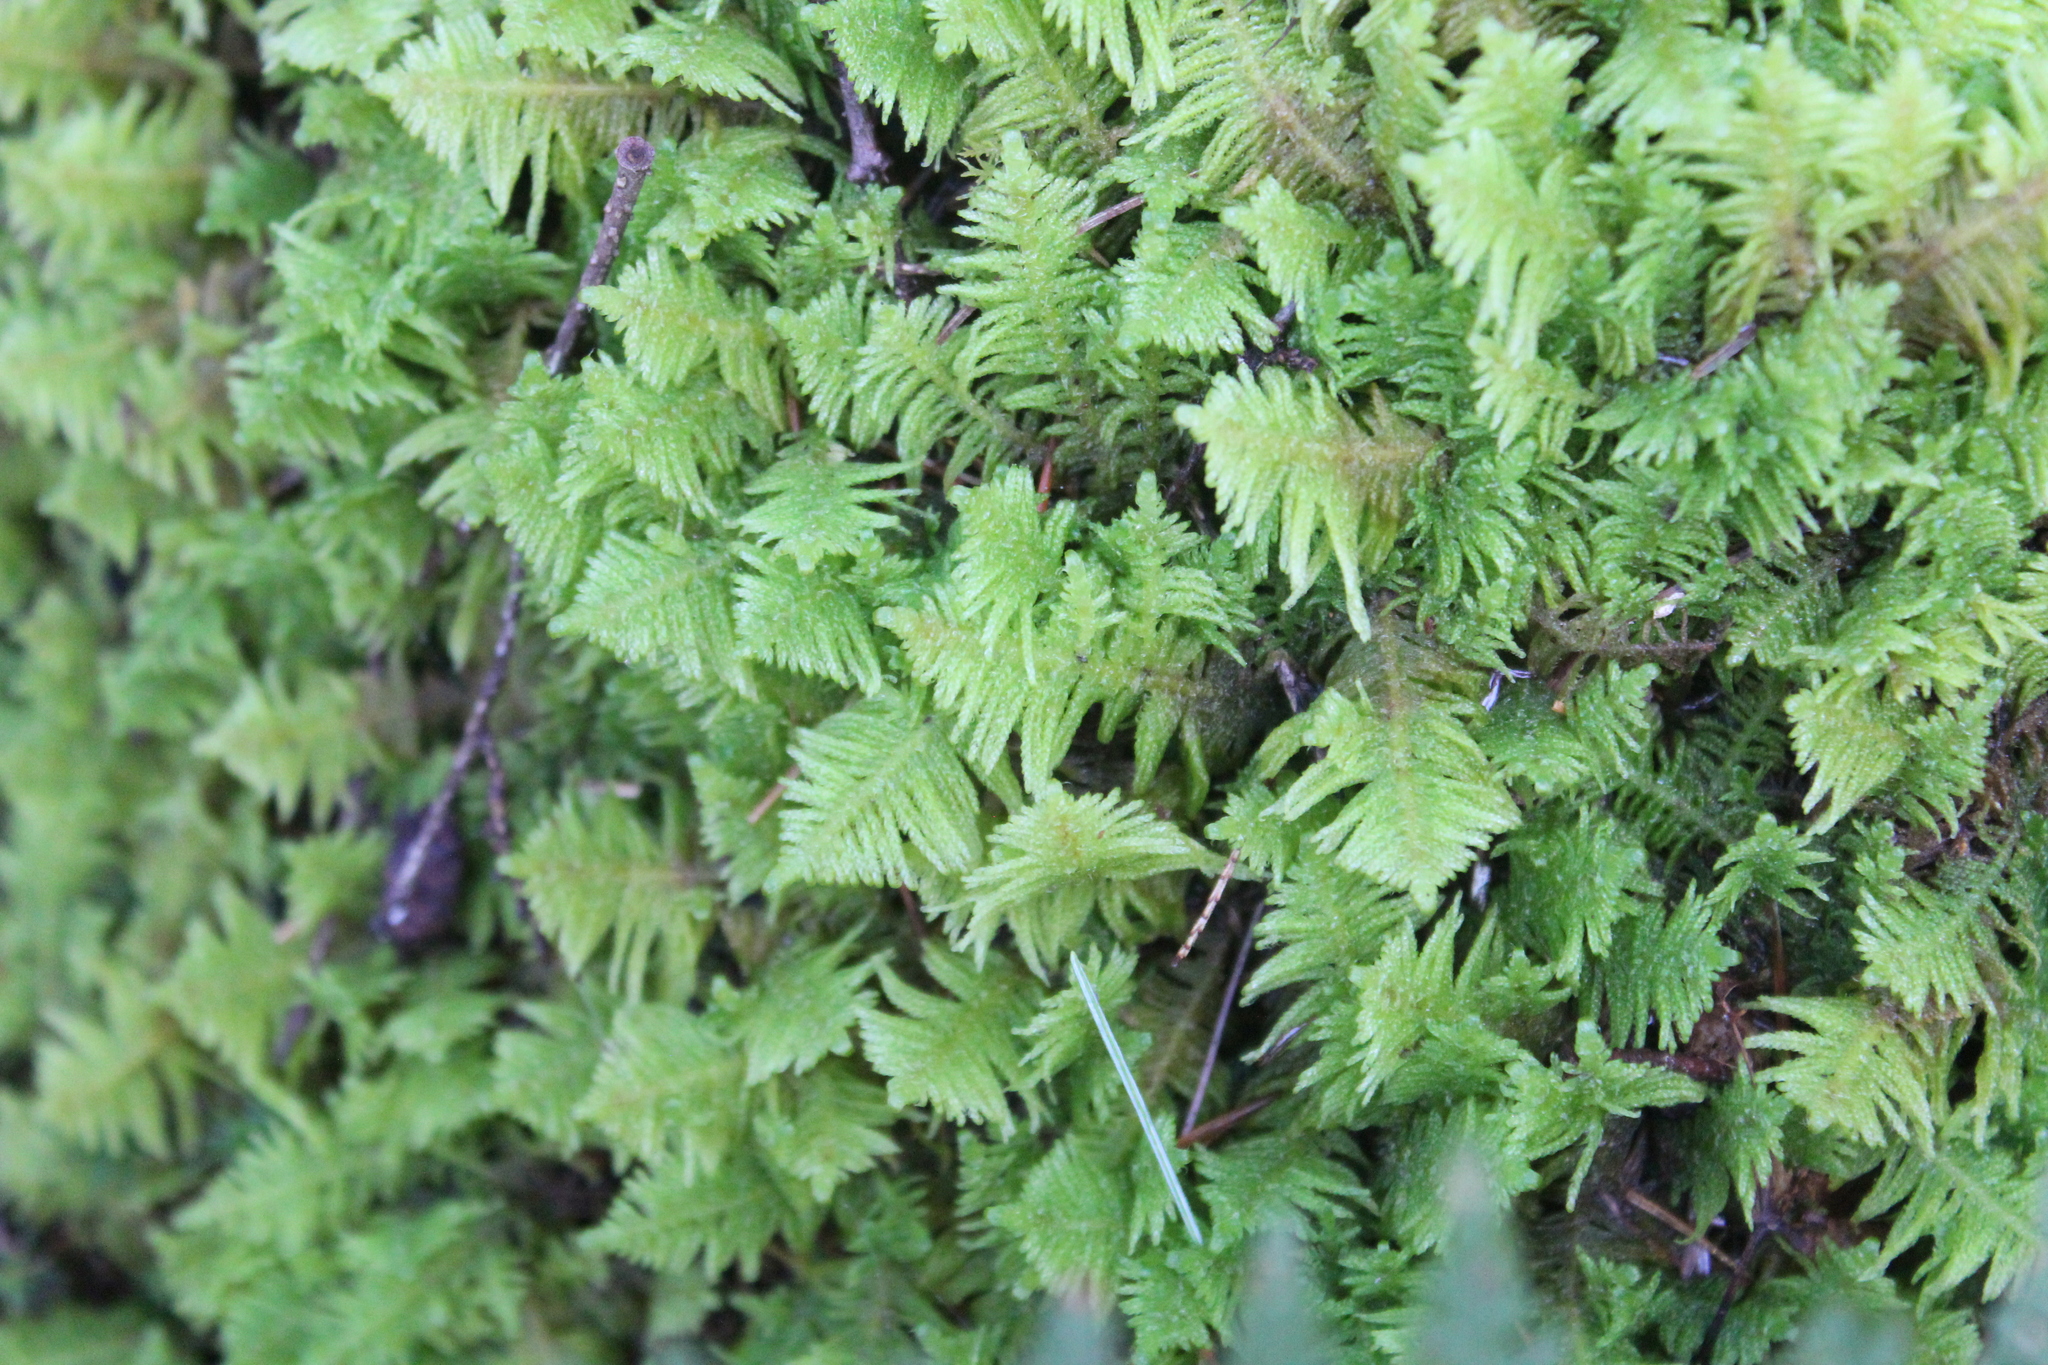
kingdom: Plantae
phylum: Bryophyta
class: Bryopsida
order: Hypnales
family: Pylaisiaceae
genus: Ptilium
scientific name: Ptilium crista-castrensis
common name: Knight's plume moss
